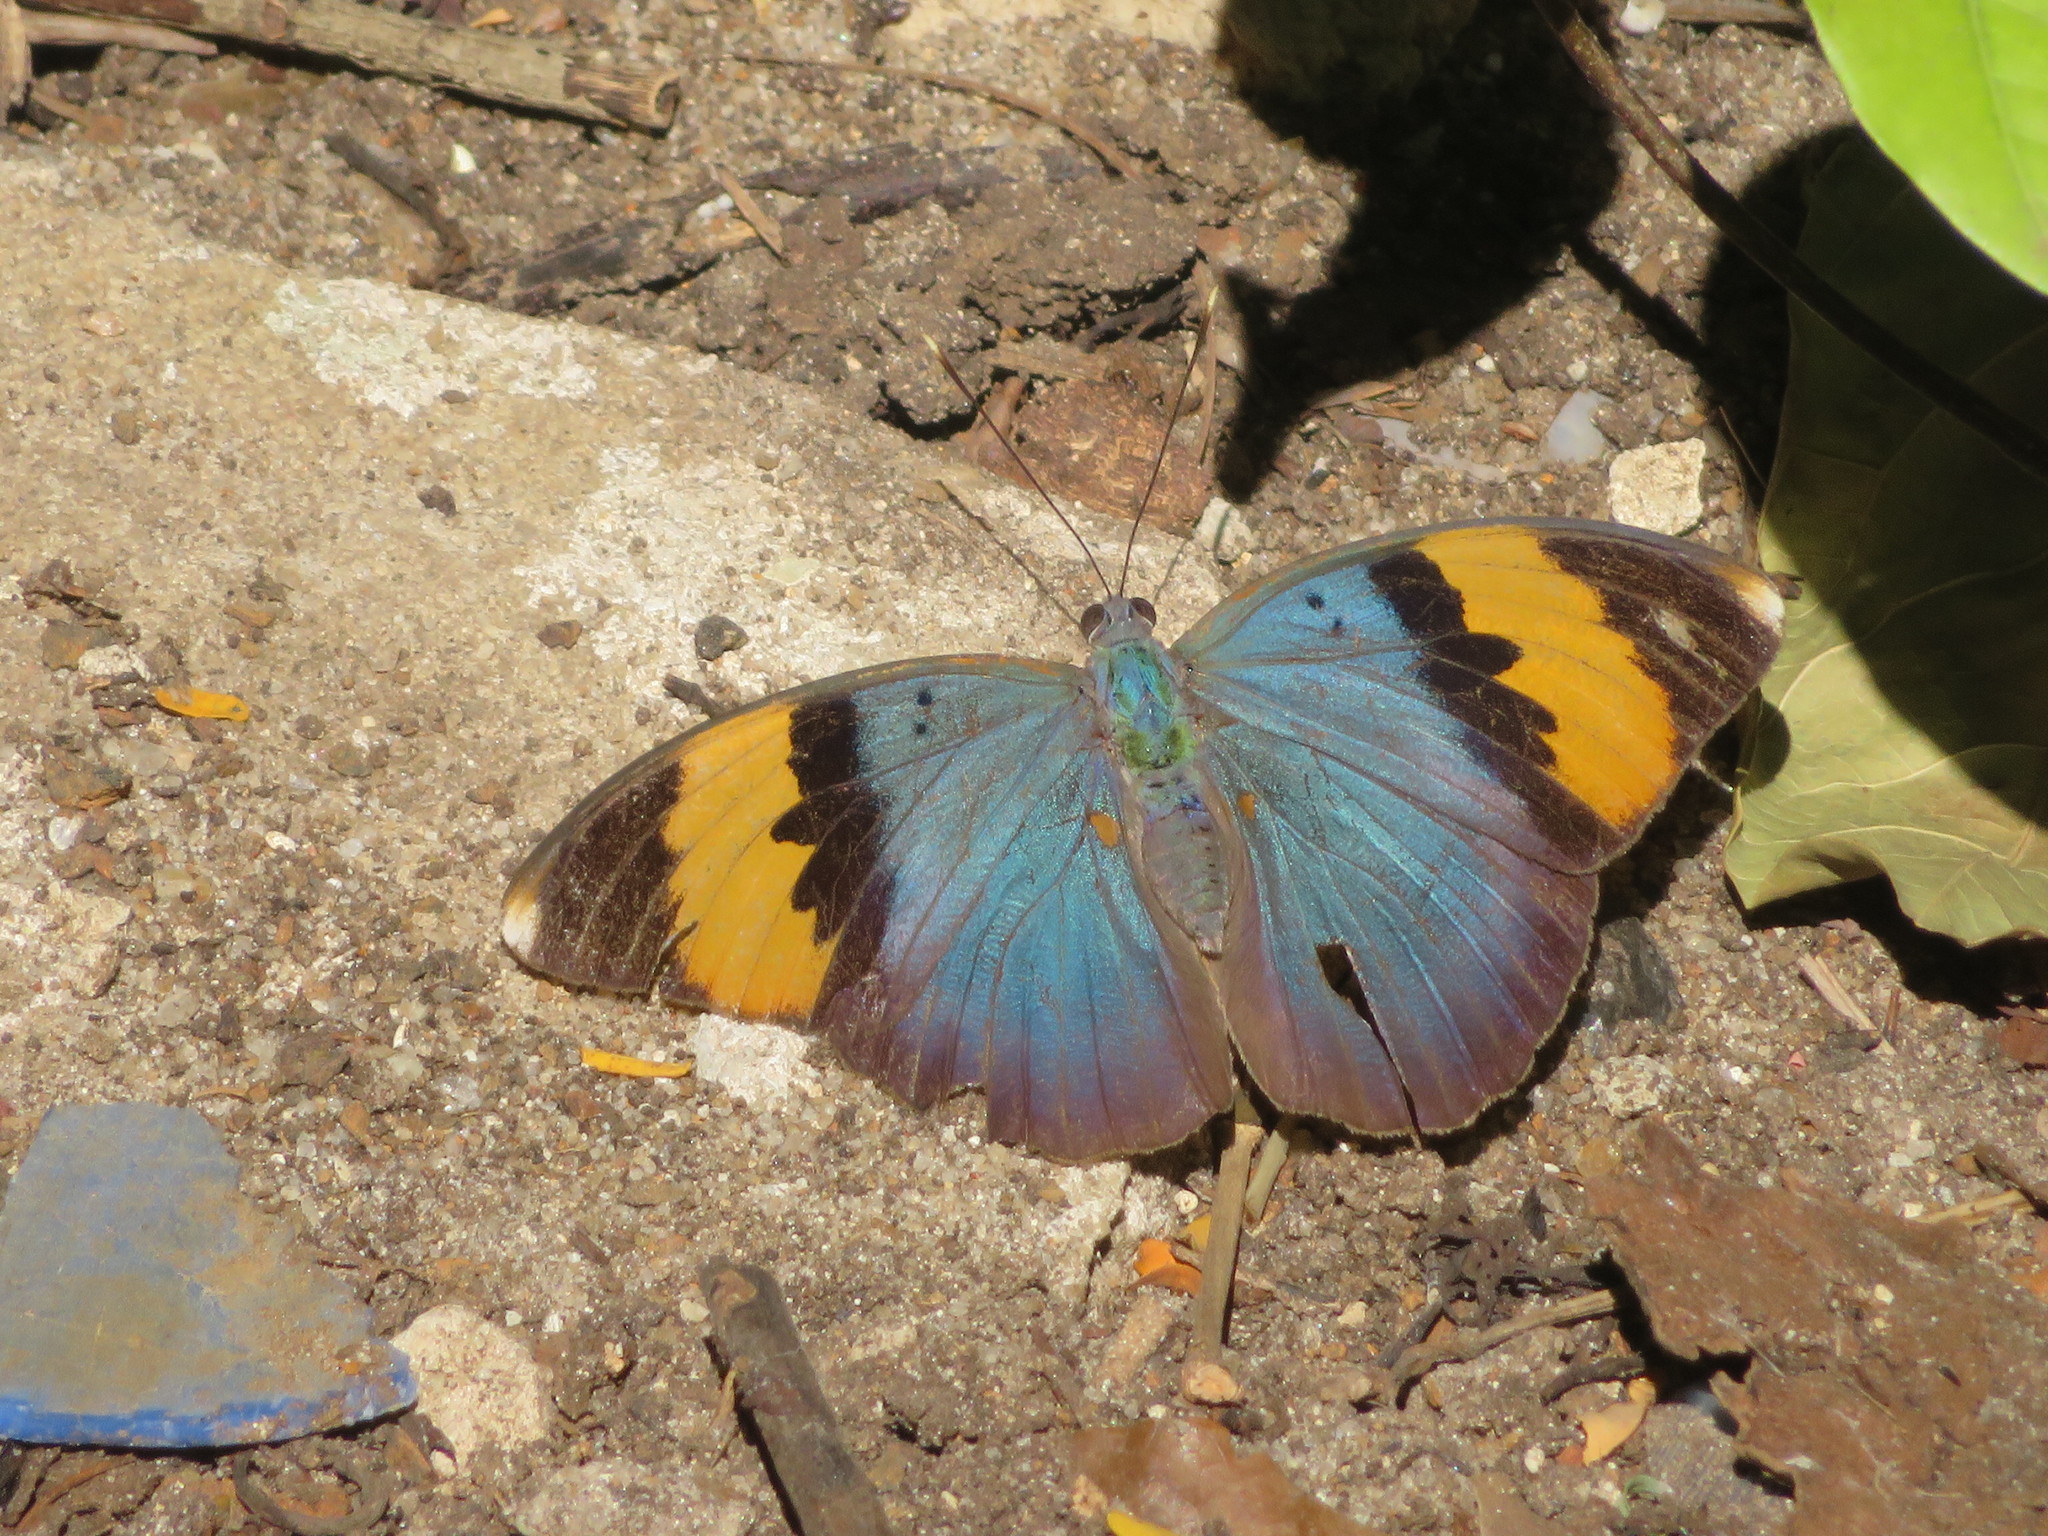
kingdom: Animalia
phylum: Arthropoda
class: Insecta
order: Lepidoptera
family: Nymphalidae
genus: Euphaedra
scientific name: Euphaedra neophron
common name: Gold-banded forester
